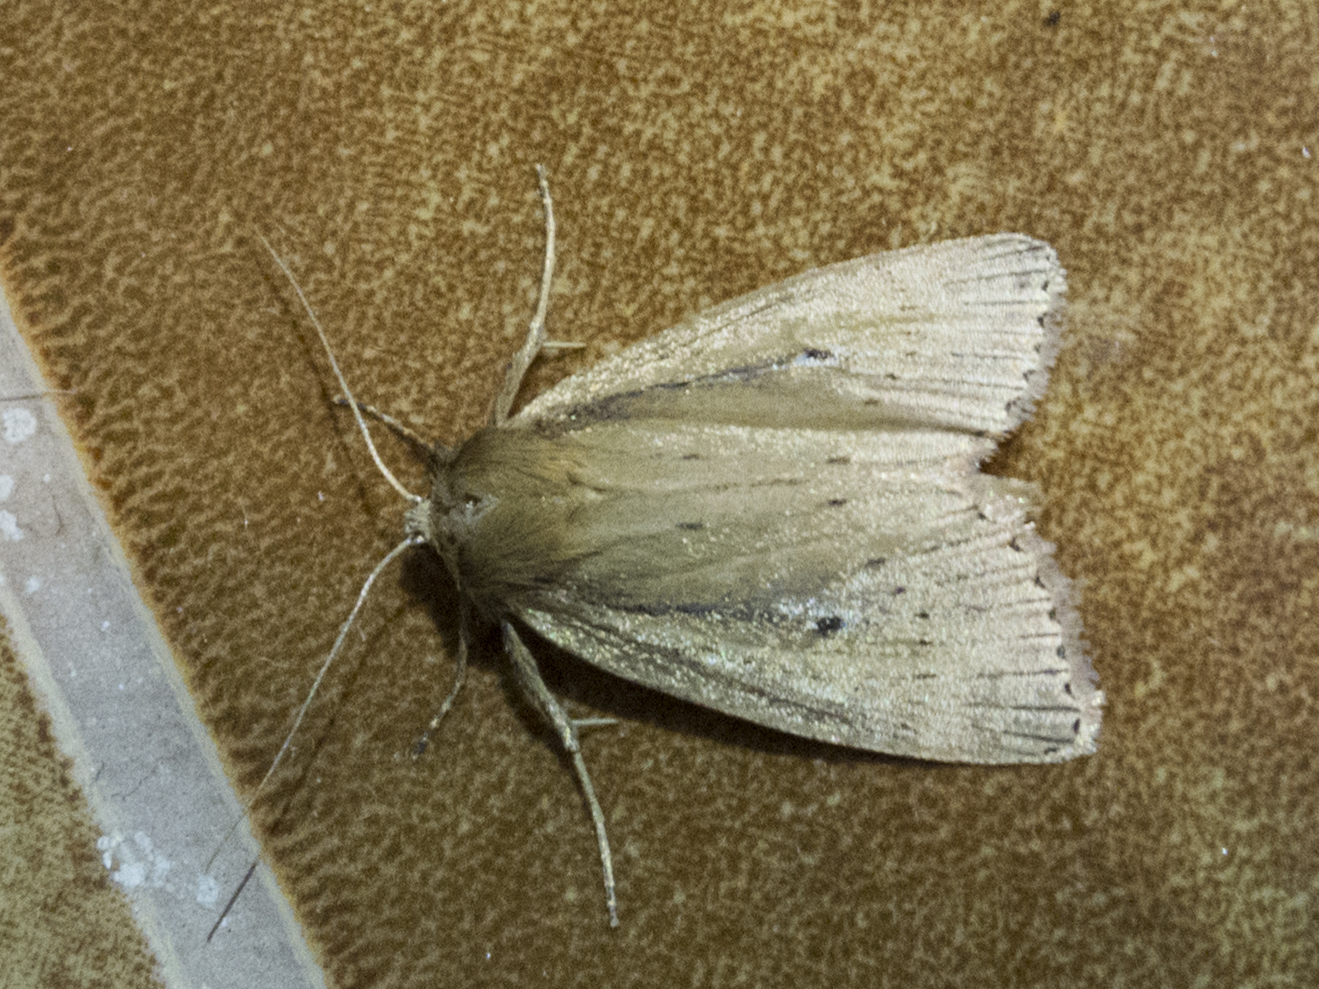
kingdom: Animalia
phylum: Arthropoda
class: Insecta
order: Lepidoptera
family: Noctuidae
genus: Archanara
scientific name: Archanara dissoluta
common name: Brown-veined wainscot
